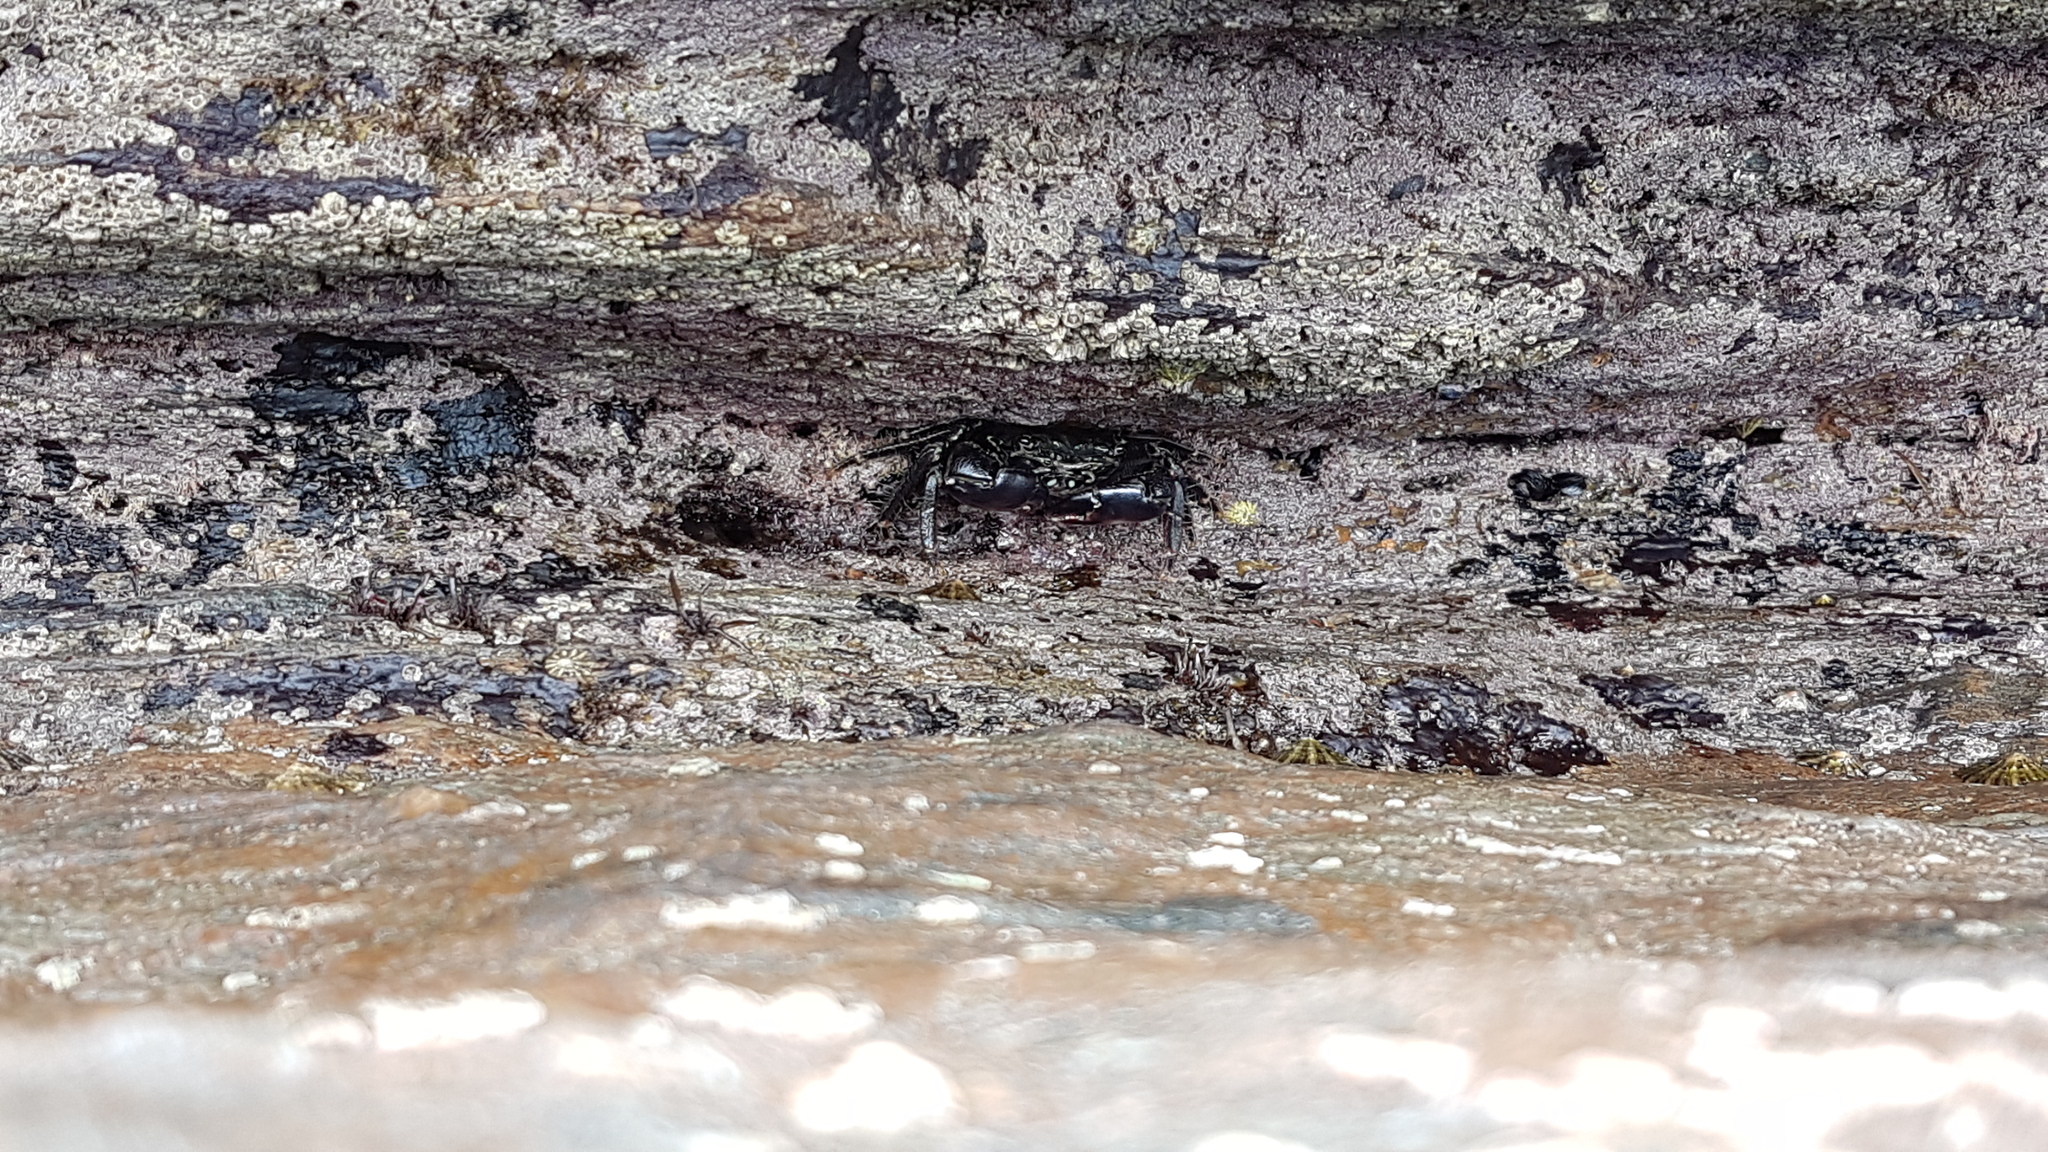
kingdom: Animalia
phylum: Arthropoda
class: Malacostraca
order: Decapoda
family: Grapsidae
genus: Pachygrapsus
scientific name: Pachygrapsus marmoratus
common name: Marbled rock crab
